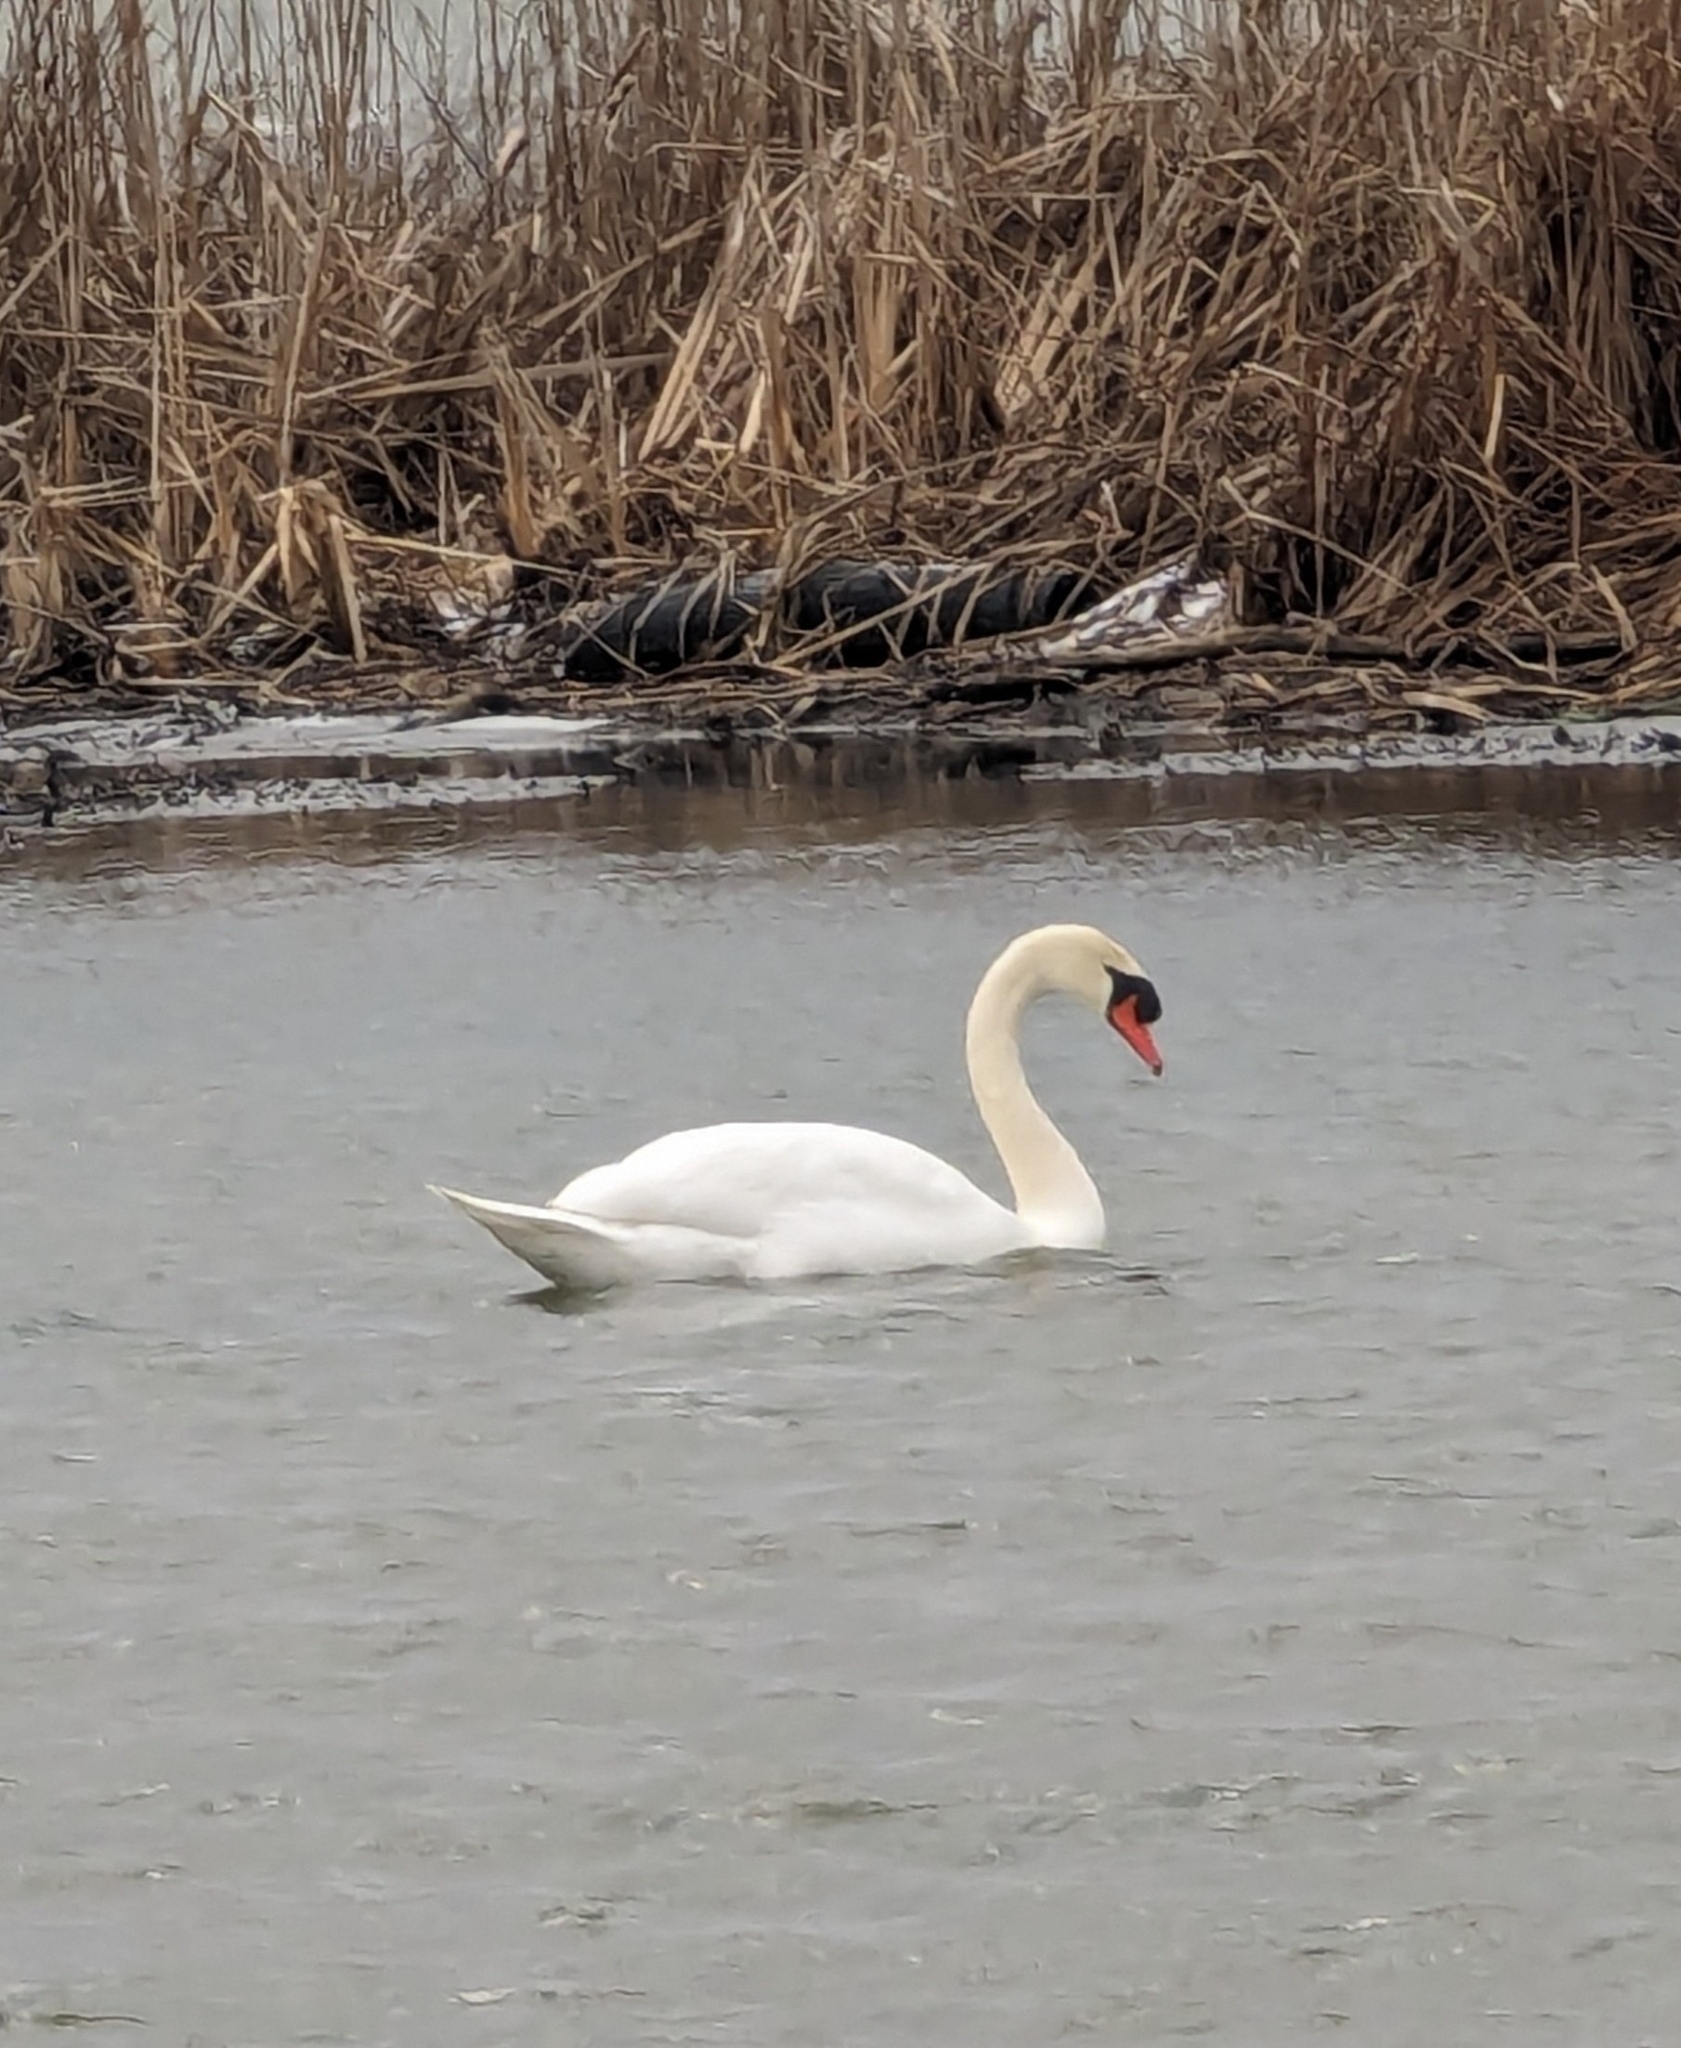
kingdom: Animalia
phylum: Chordata
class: Aves
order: Anseriformes
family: Anatidae
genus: Cygnus
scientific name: Cygnus olor
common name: Mute swan
